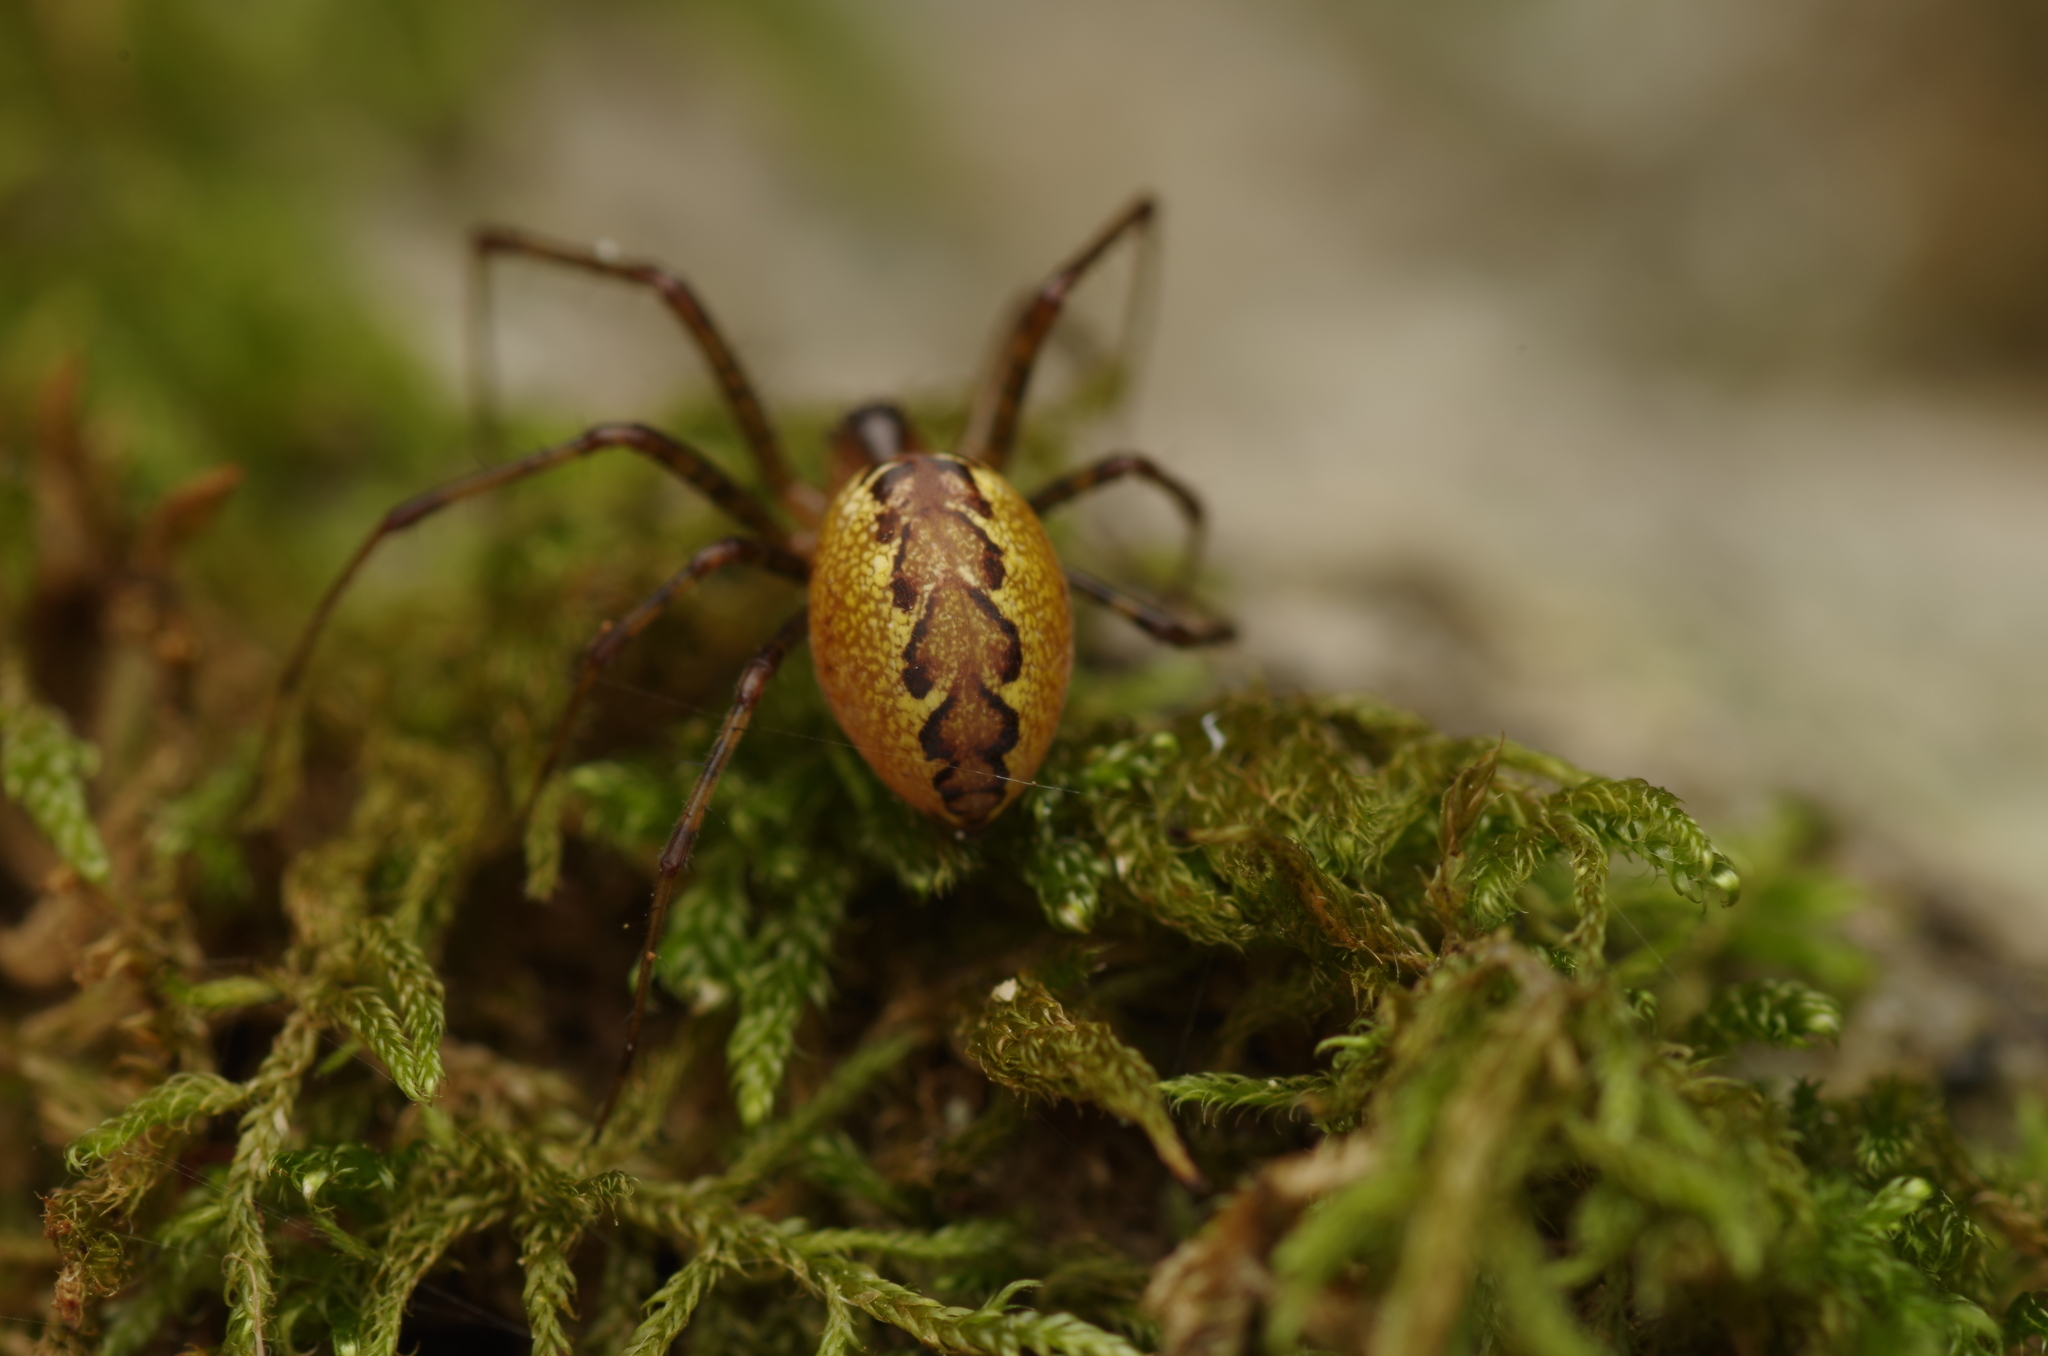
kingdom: Animalia
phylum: Arthropoda
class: Arachnida
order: Araneae
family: Linyphiidae
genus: Pityohyphantes
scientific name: Pityohyphantes phrygianus
